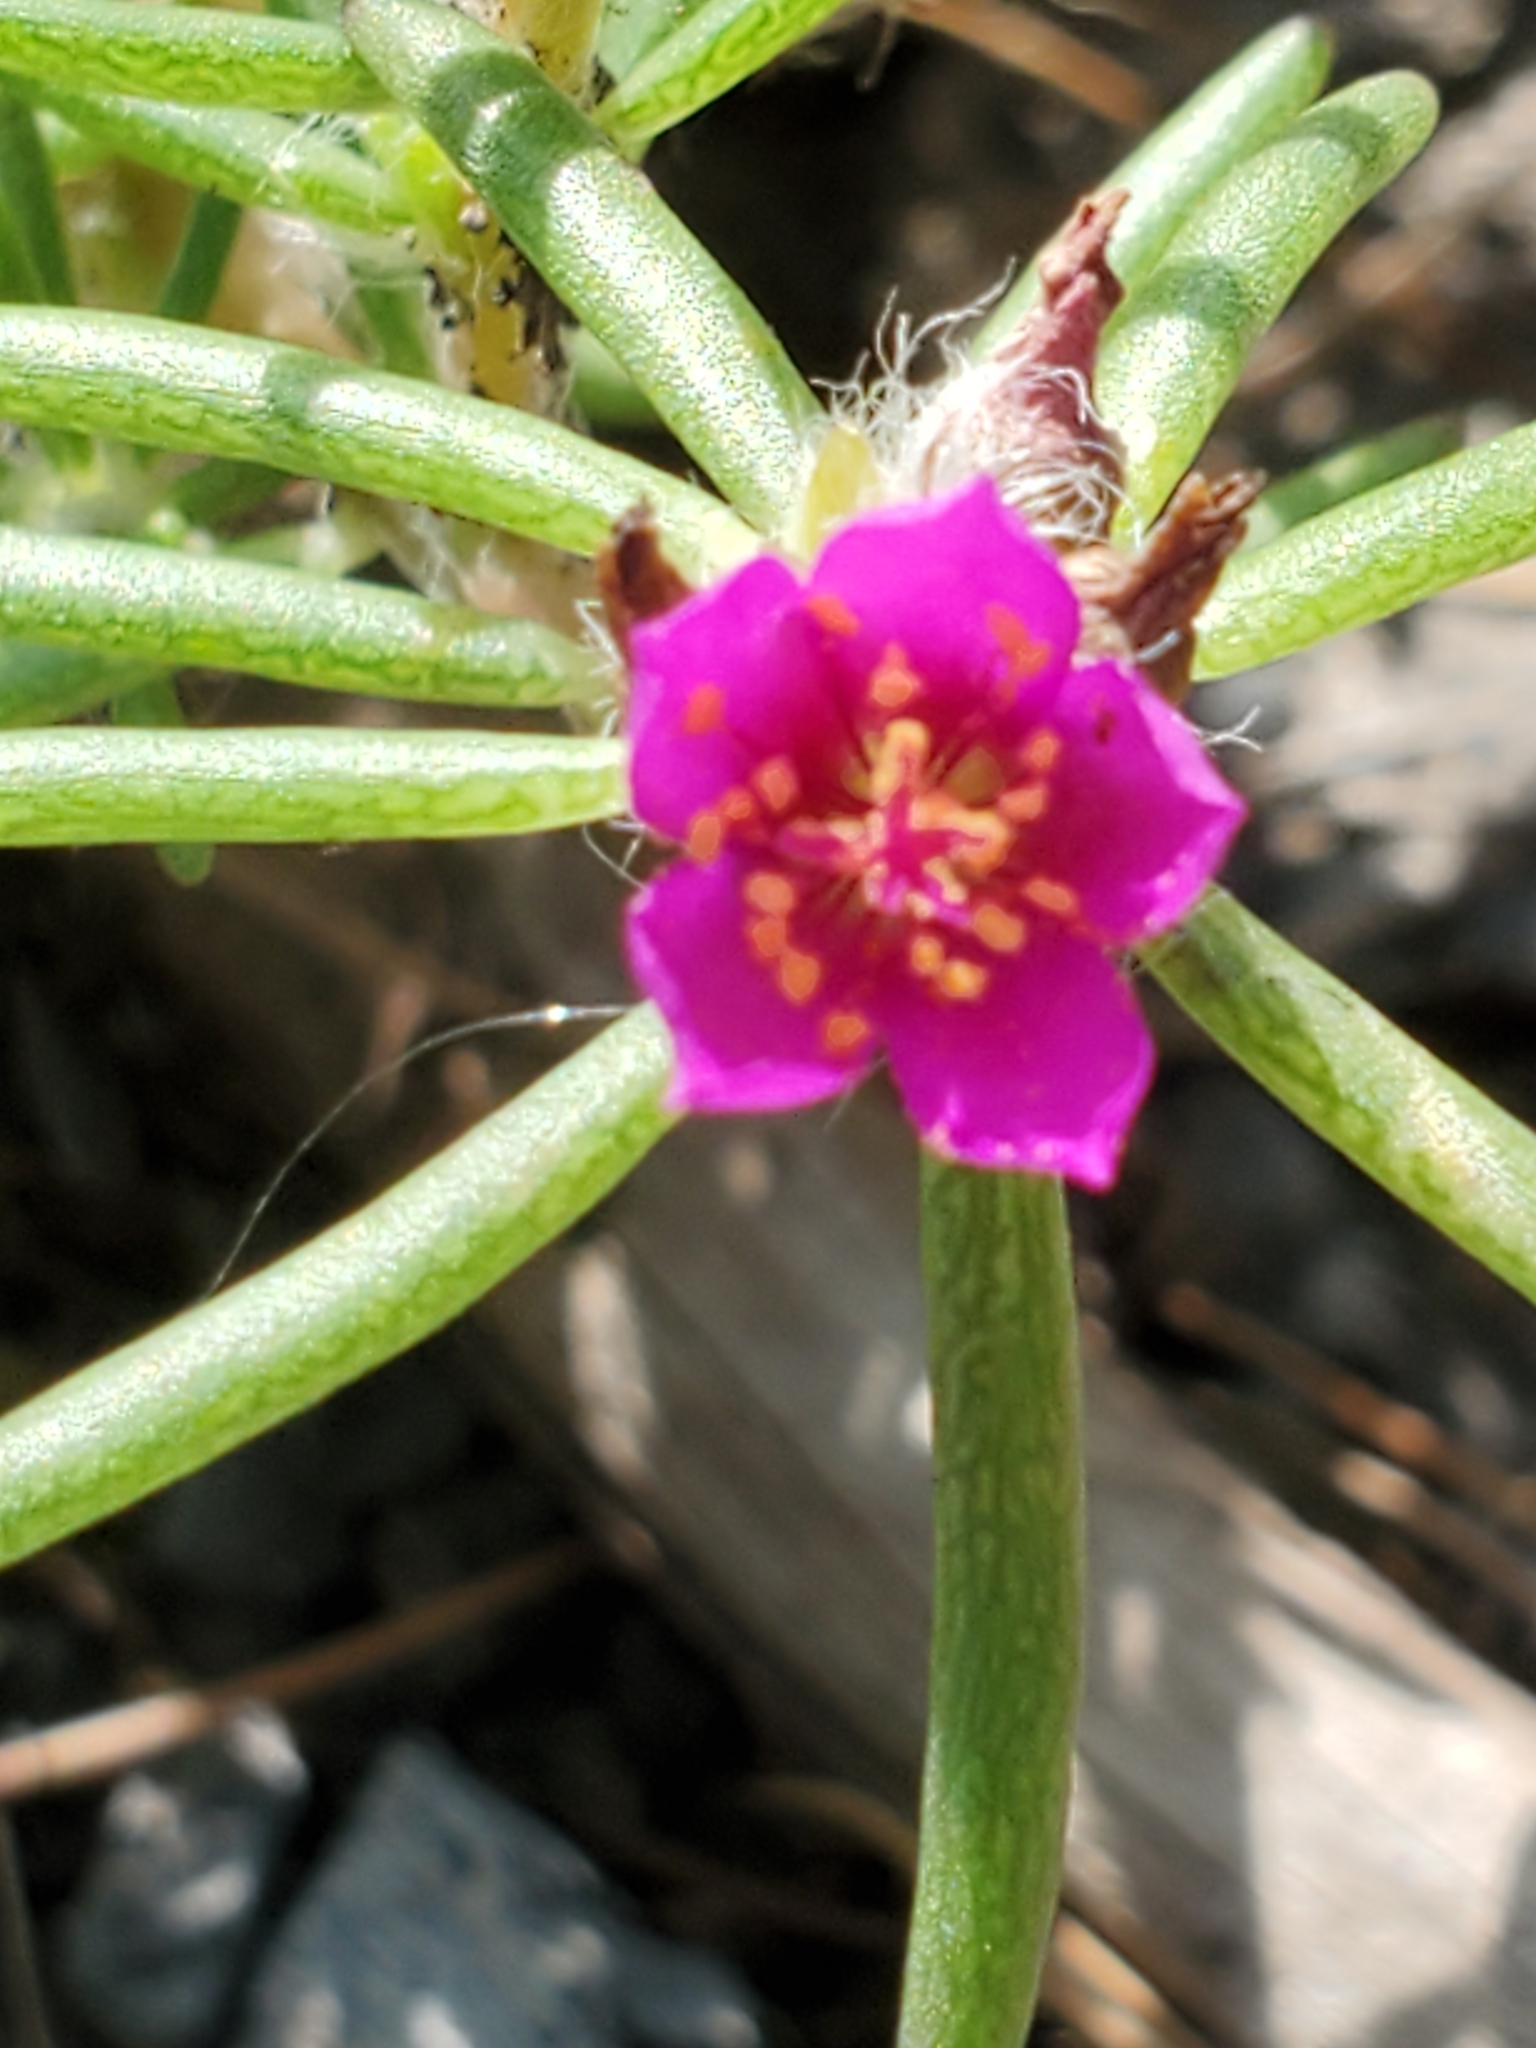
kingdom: Plantae
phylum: Tracheophyta
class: Magnoliopsida
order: Caryophyllales
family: Portulacaceae
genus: Portulaca
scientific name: Portulaca pilosa
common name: Kiss me quick
